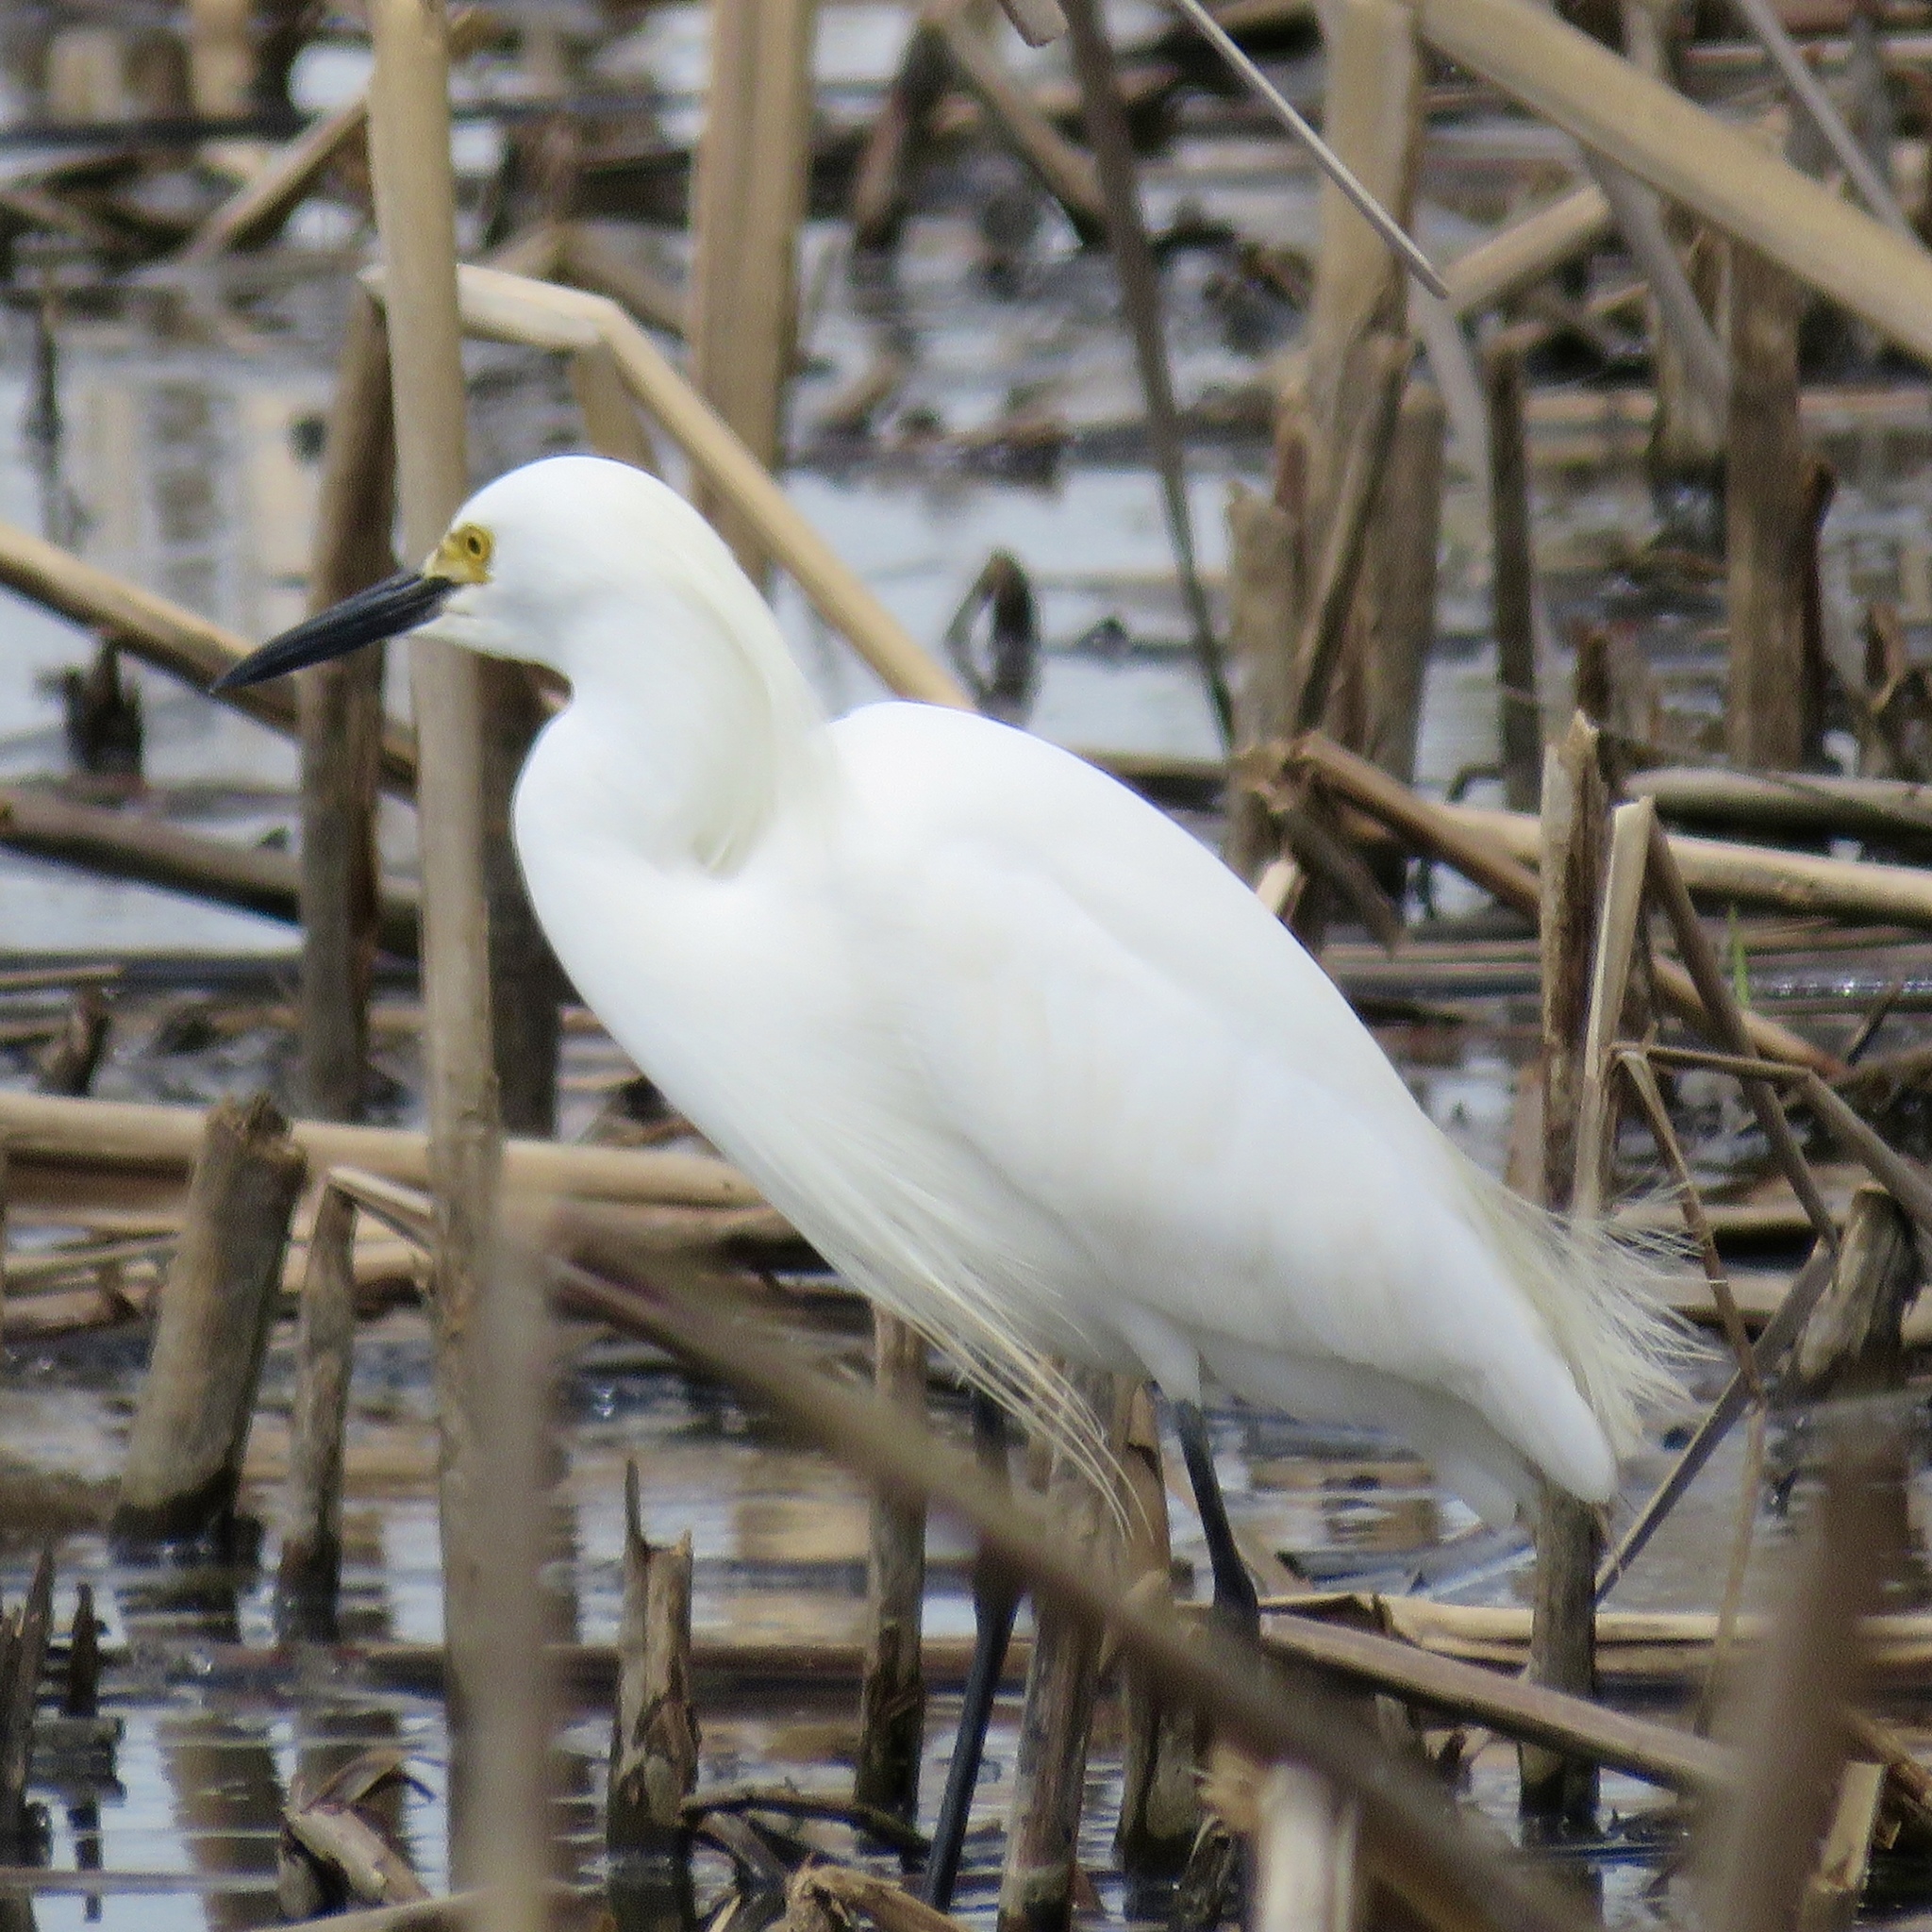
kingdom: Animalia
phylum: Chordata
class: Aves
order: Pelecaniformes
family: Ardeidae
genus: Egretta
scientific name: Egretta thula
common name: Snowy egret
